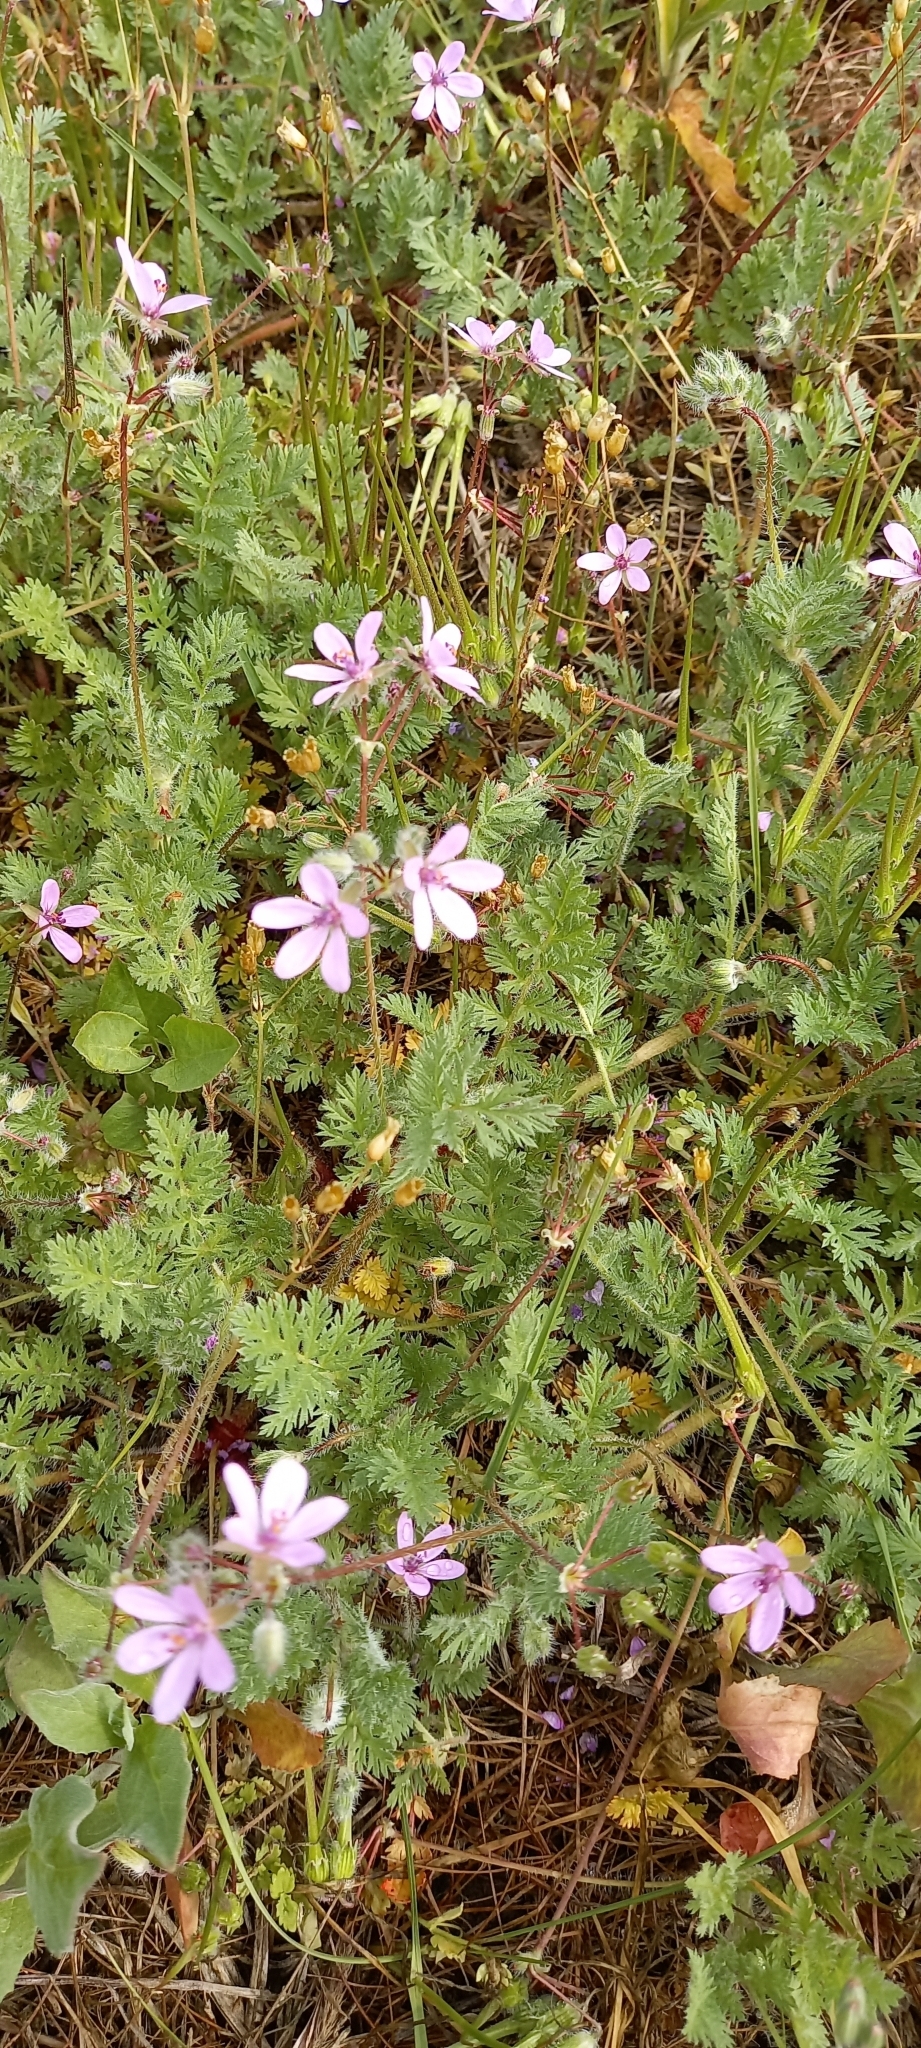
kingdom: Plantae
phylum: Tracheophyta
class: Magnoliopsida
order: Geraniales
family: Geraniaceae
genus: Erodium
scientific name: Erodium cicutarium
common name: Common stork's-bill
